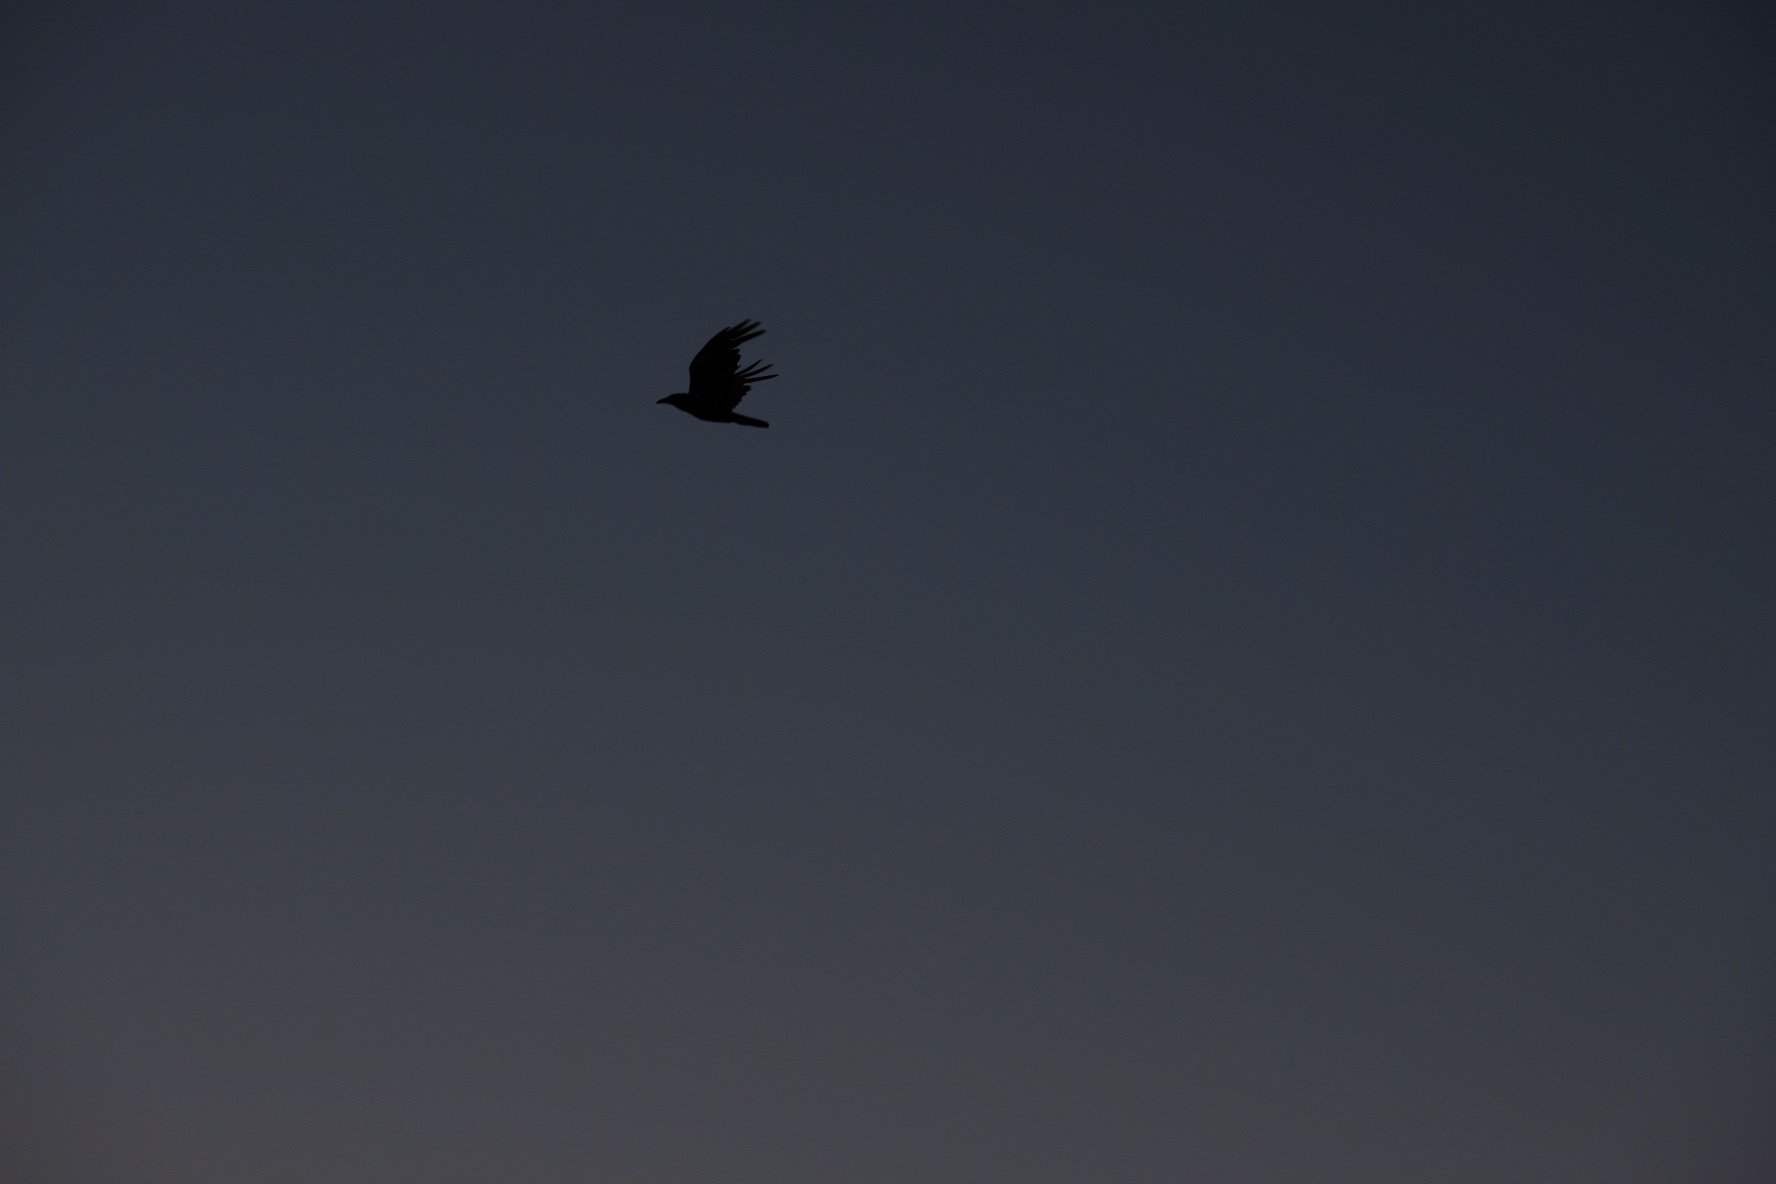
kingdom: Animalia
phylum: Chordata
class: Aves
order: Passeriformes
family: Corvidae
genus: Corvus
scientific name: Corvus corax
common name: Common raven
